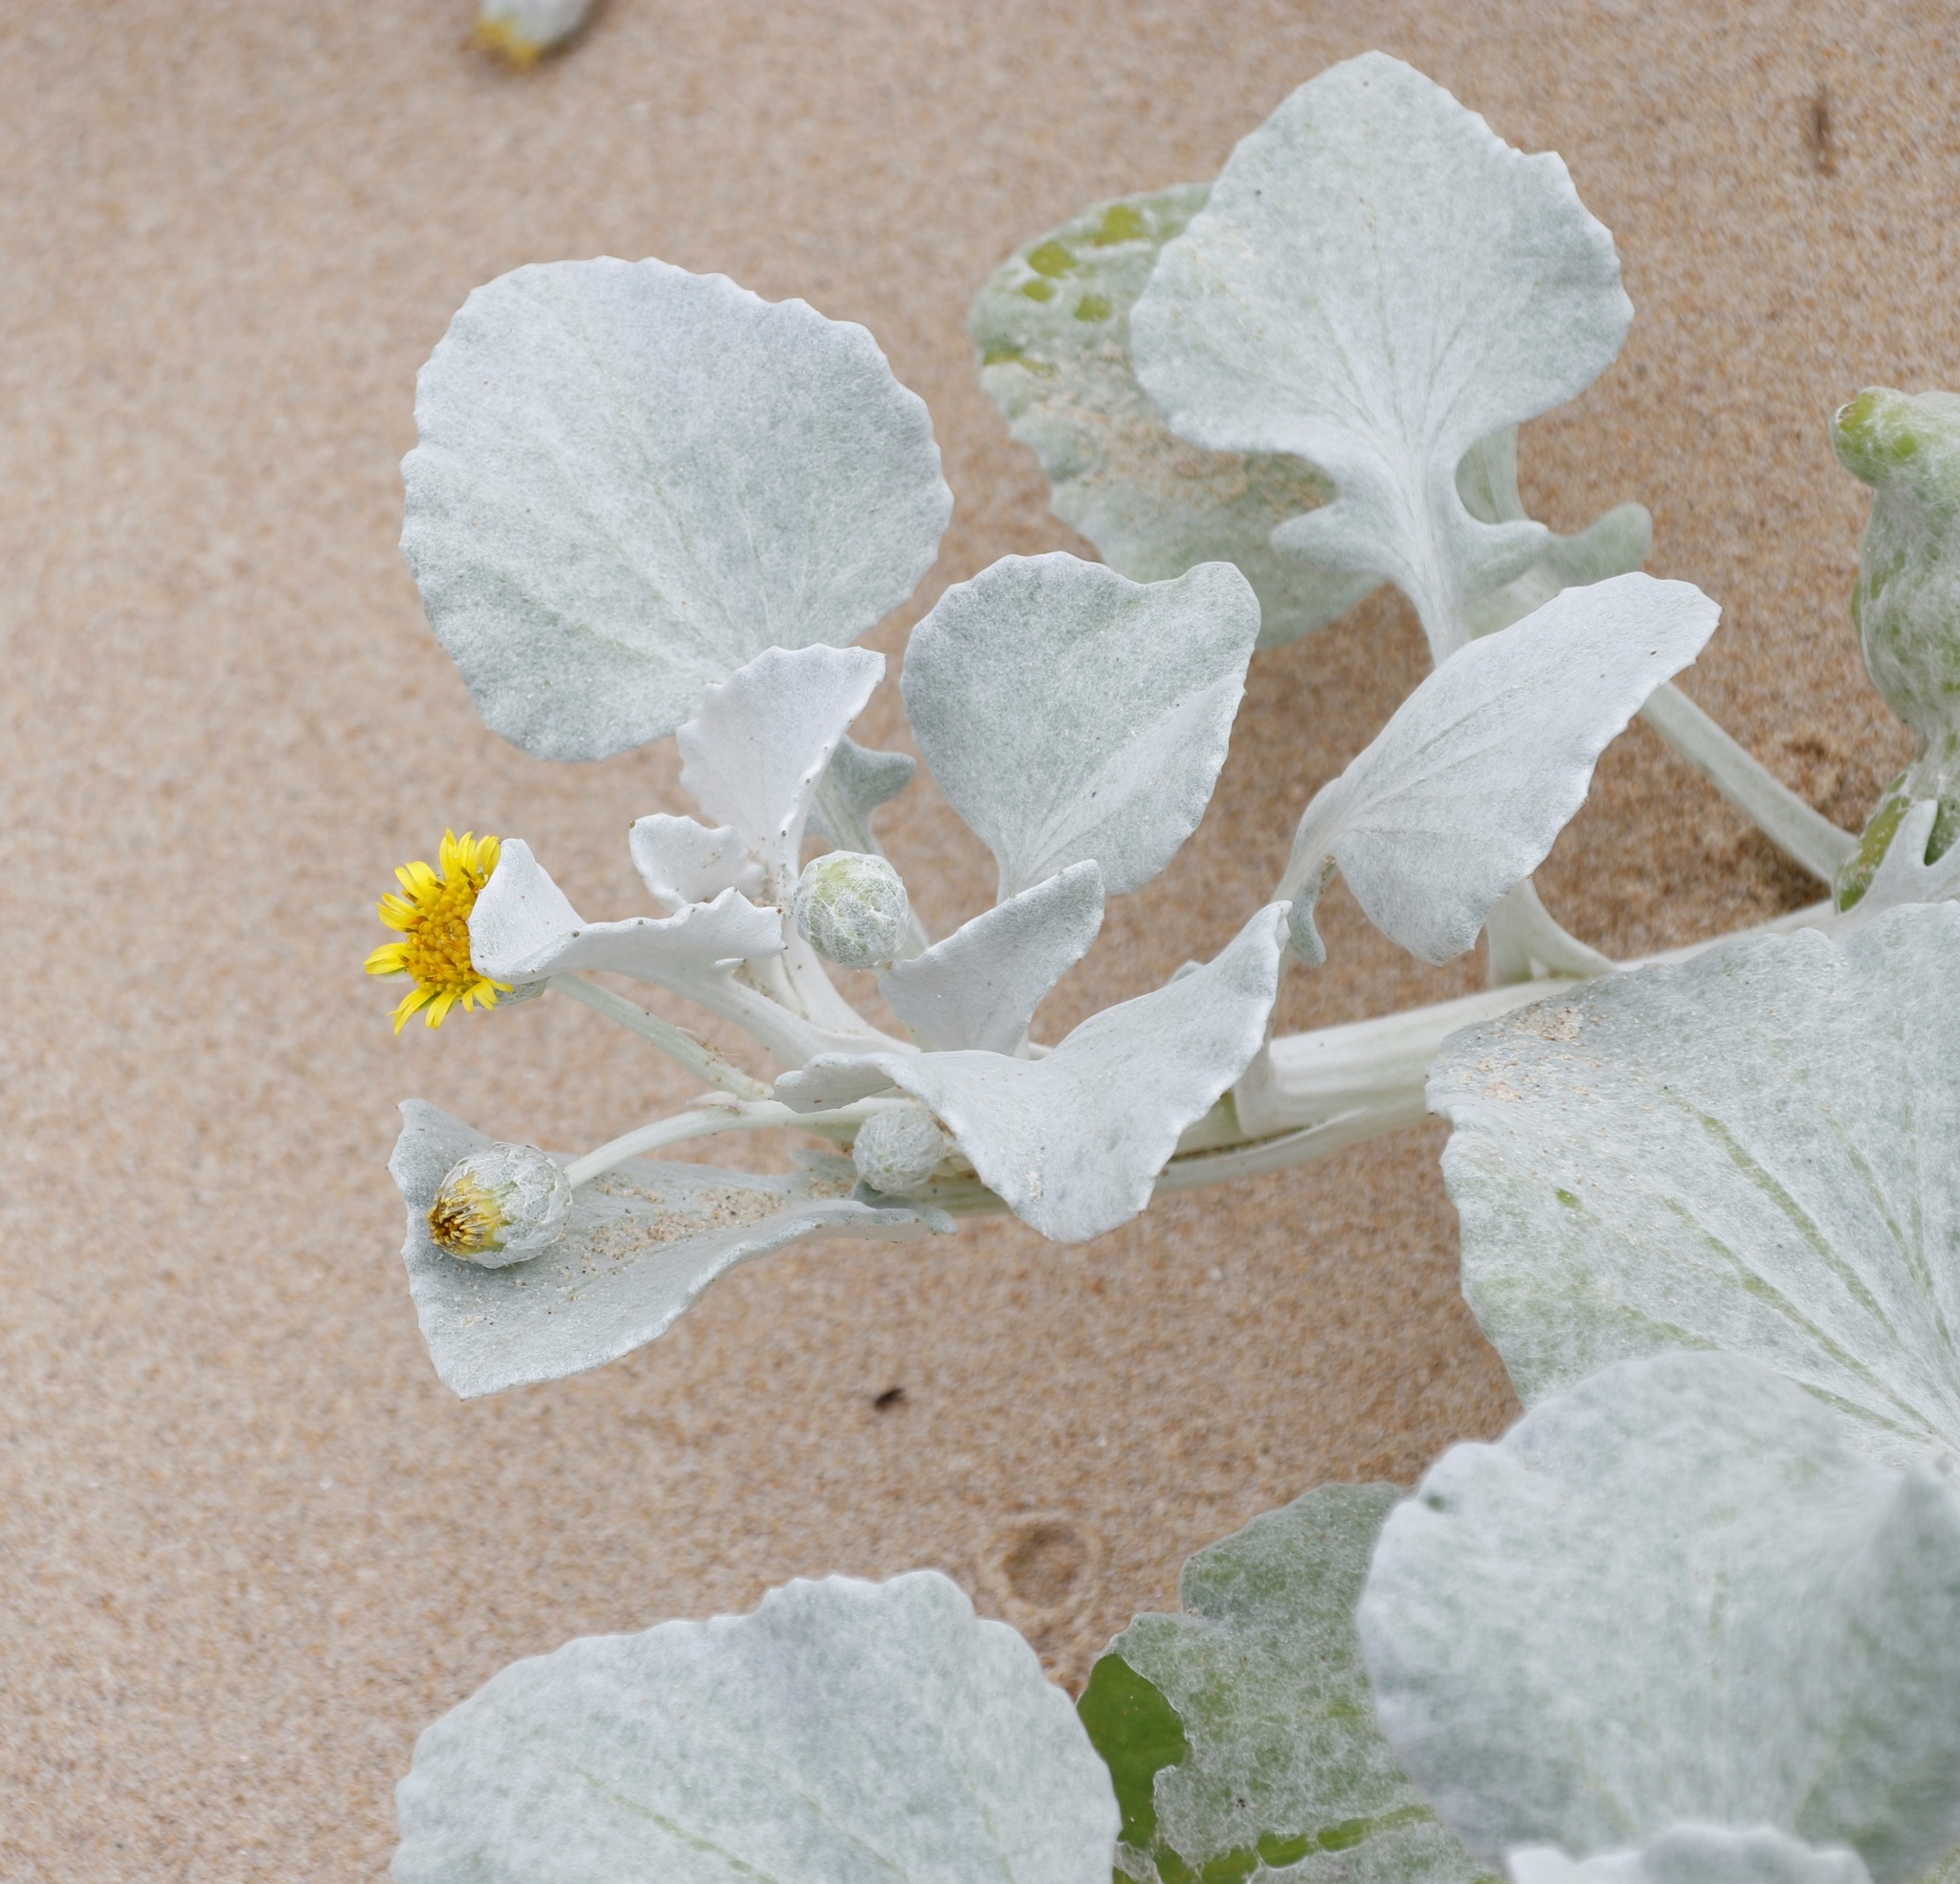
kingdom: Plantae
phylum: Tracheophyta
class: Magnoliopsida
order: Asterales
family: Asteraceae
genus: Arctotheca
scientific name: Arctotheca populifolia
